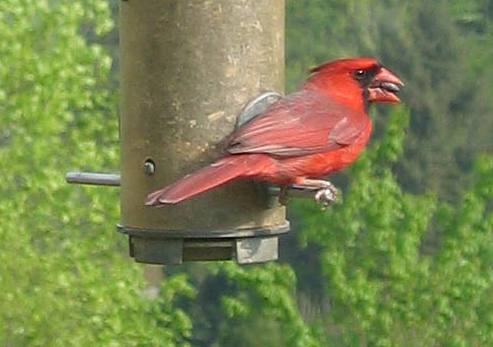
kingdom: Animalia
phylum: Chordata
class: Aves
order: Passeriformes
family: Cardinalidae
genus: Cardinalis
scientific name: Cardinalis cardinalis
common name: Northern cardinal
